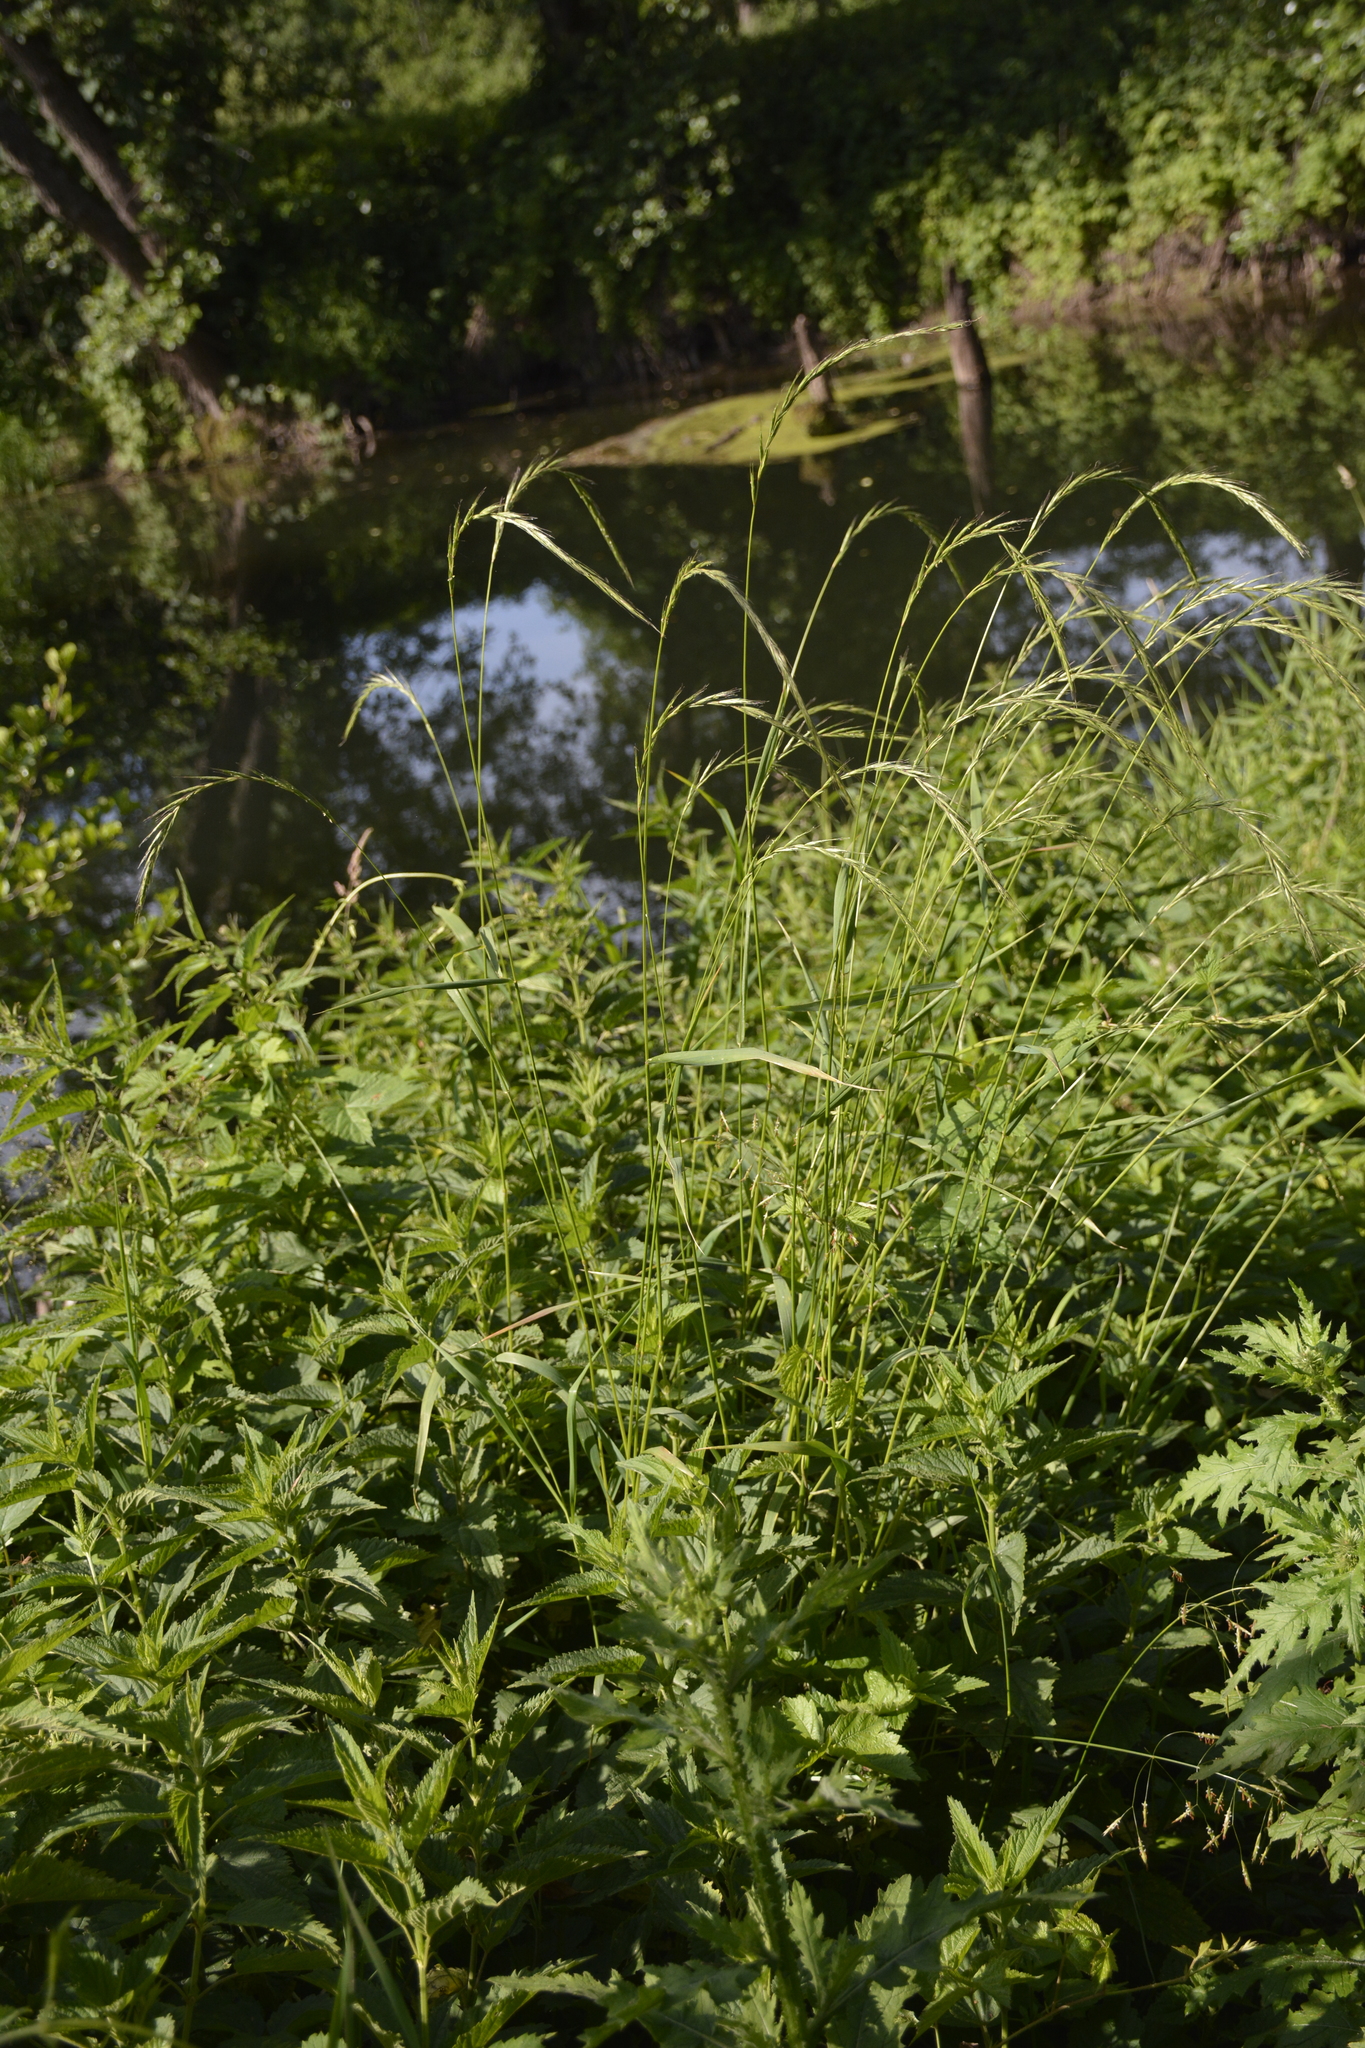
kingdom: Plantae
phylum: Tracheophyta
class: Liliopsida
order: Poales
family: Poaceae
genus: Elymus
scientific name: Elymus caninus
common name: Bearded couch
